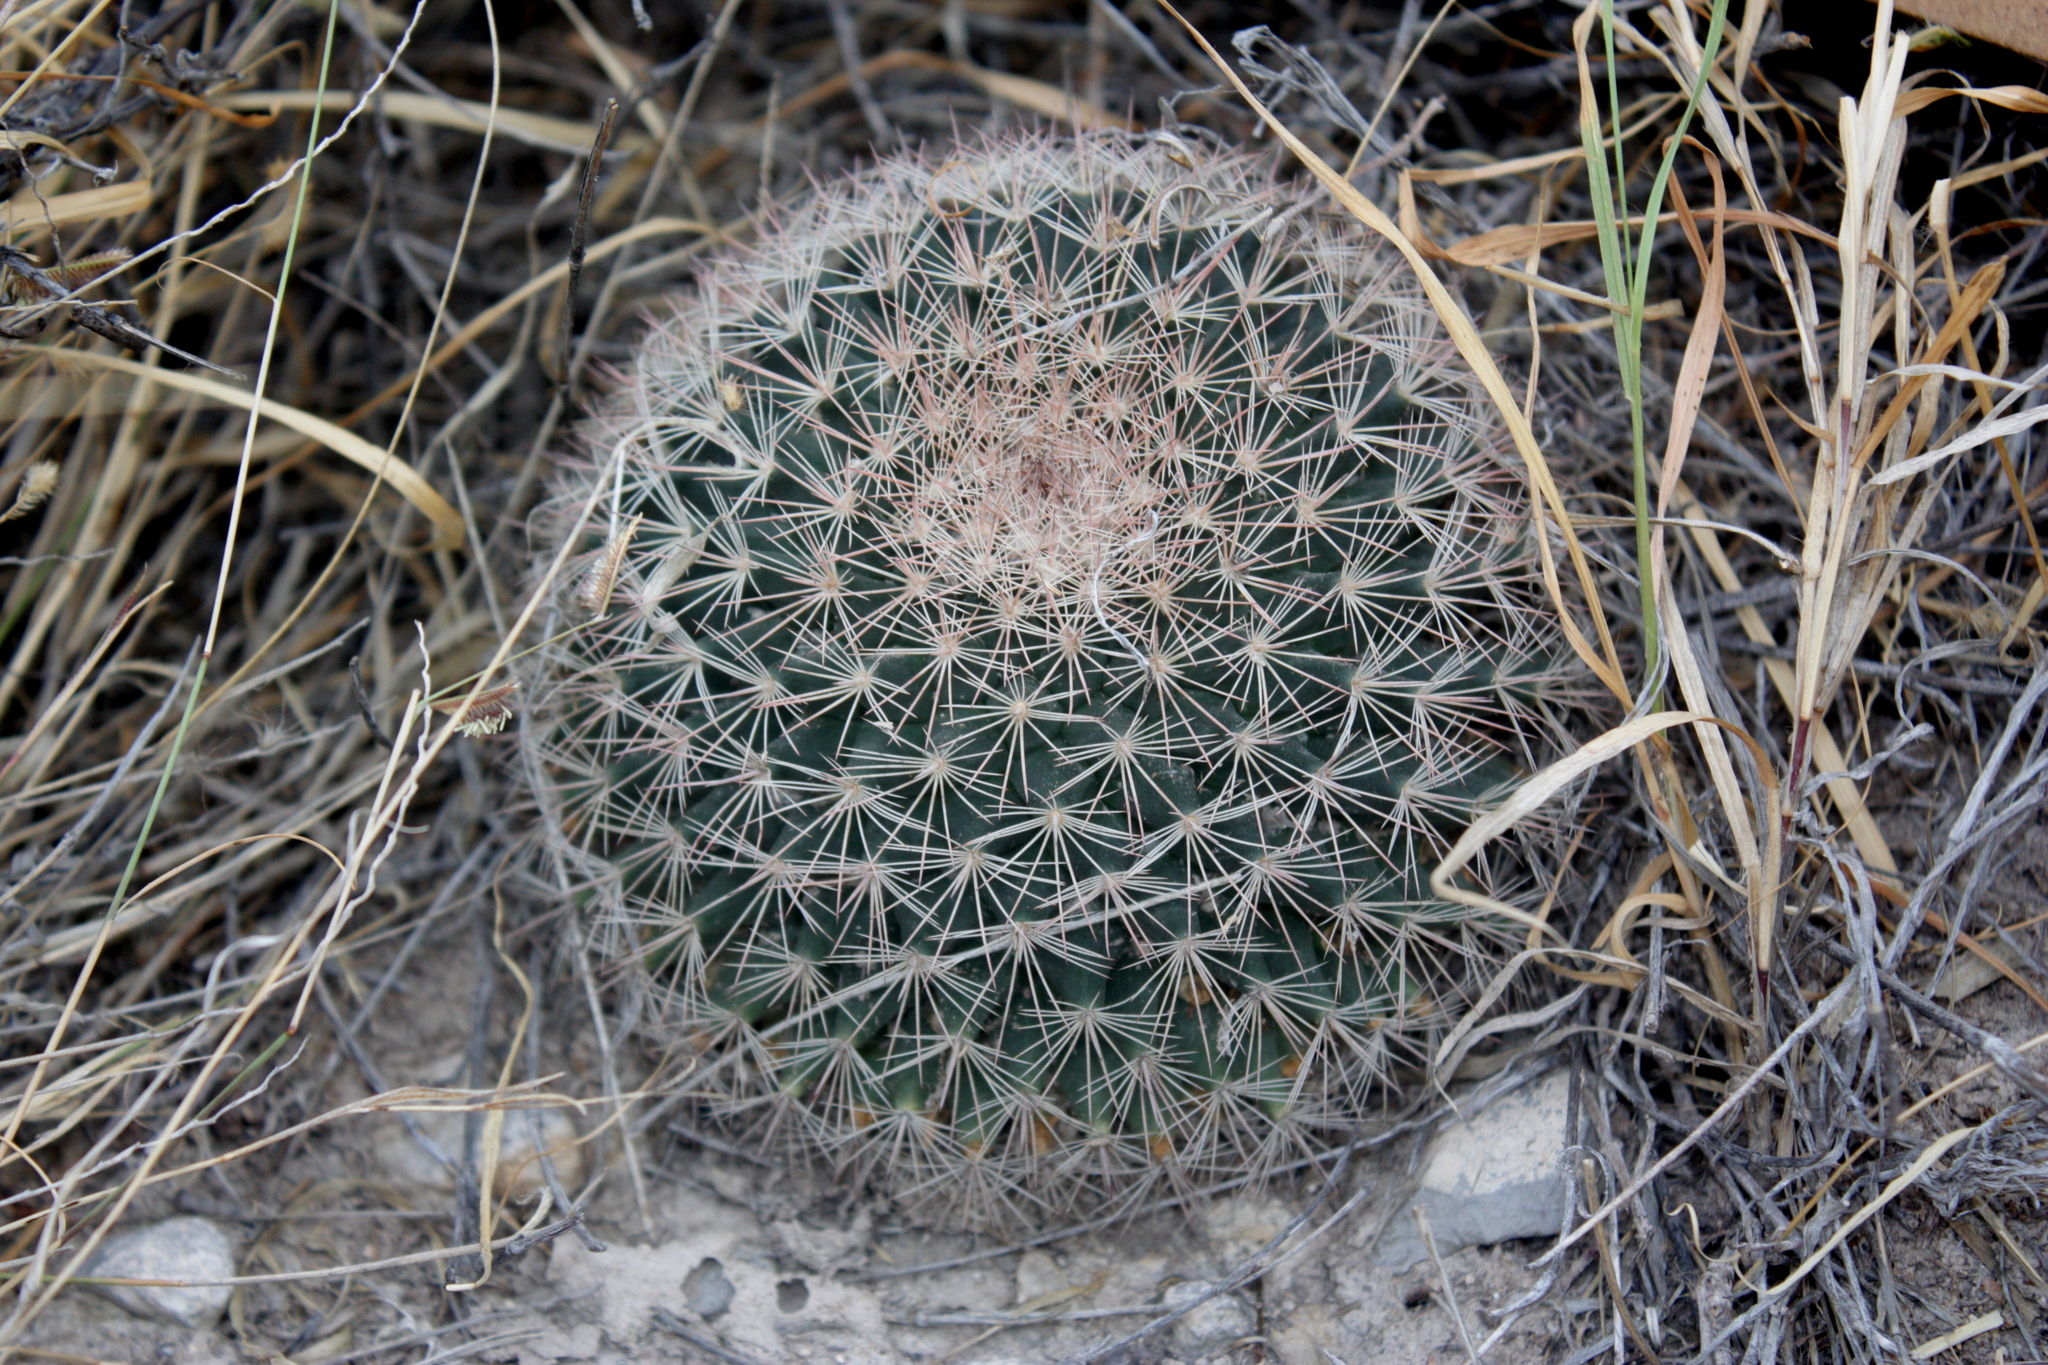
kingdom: Plantae
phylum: Tracheophyta
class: Magnoliopsida
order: Caryophyllales
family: Cactaceae
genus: Mammillaria
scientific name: Mammillaria grusonii
